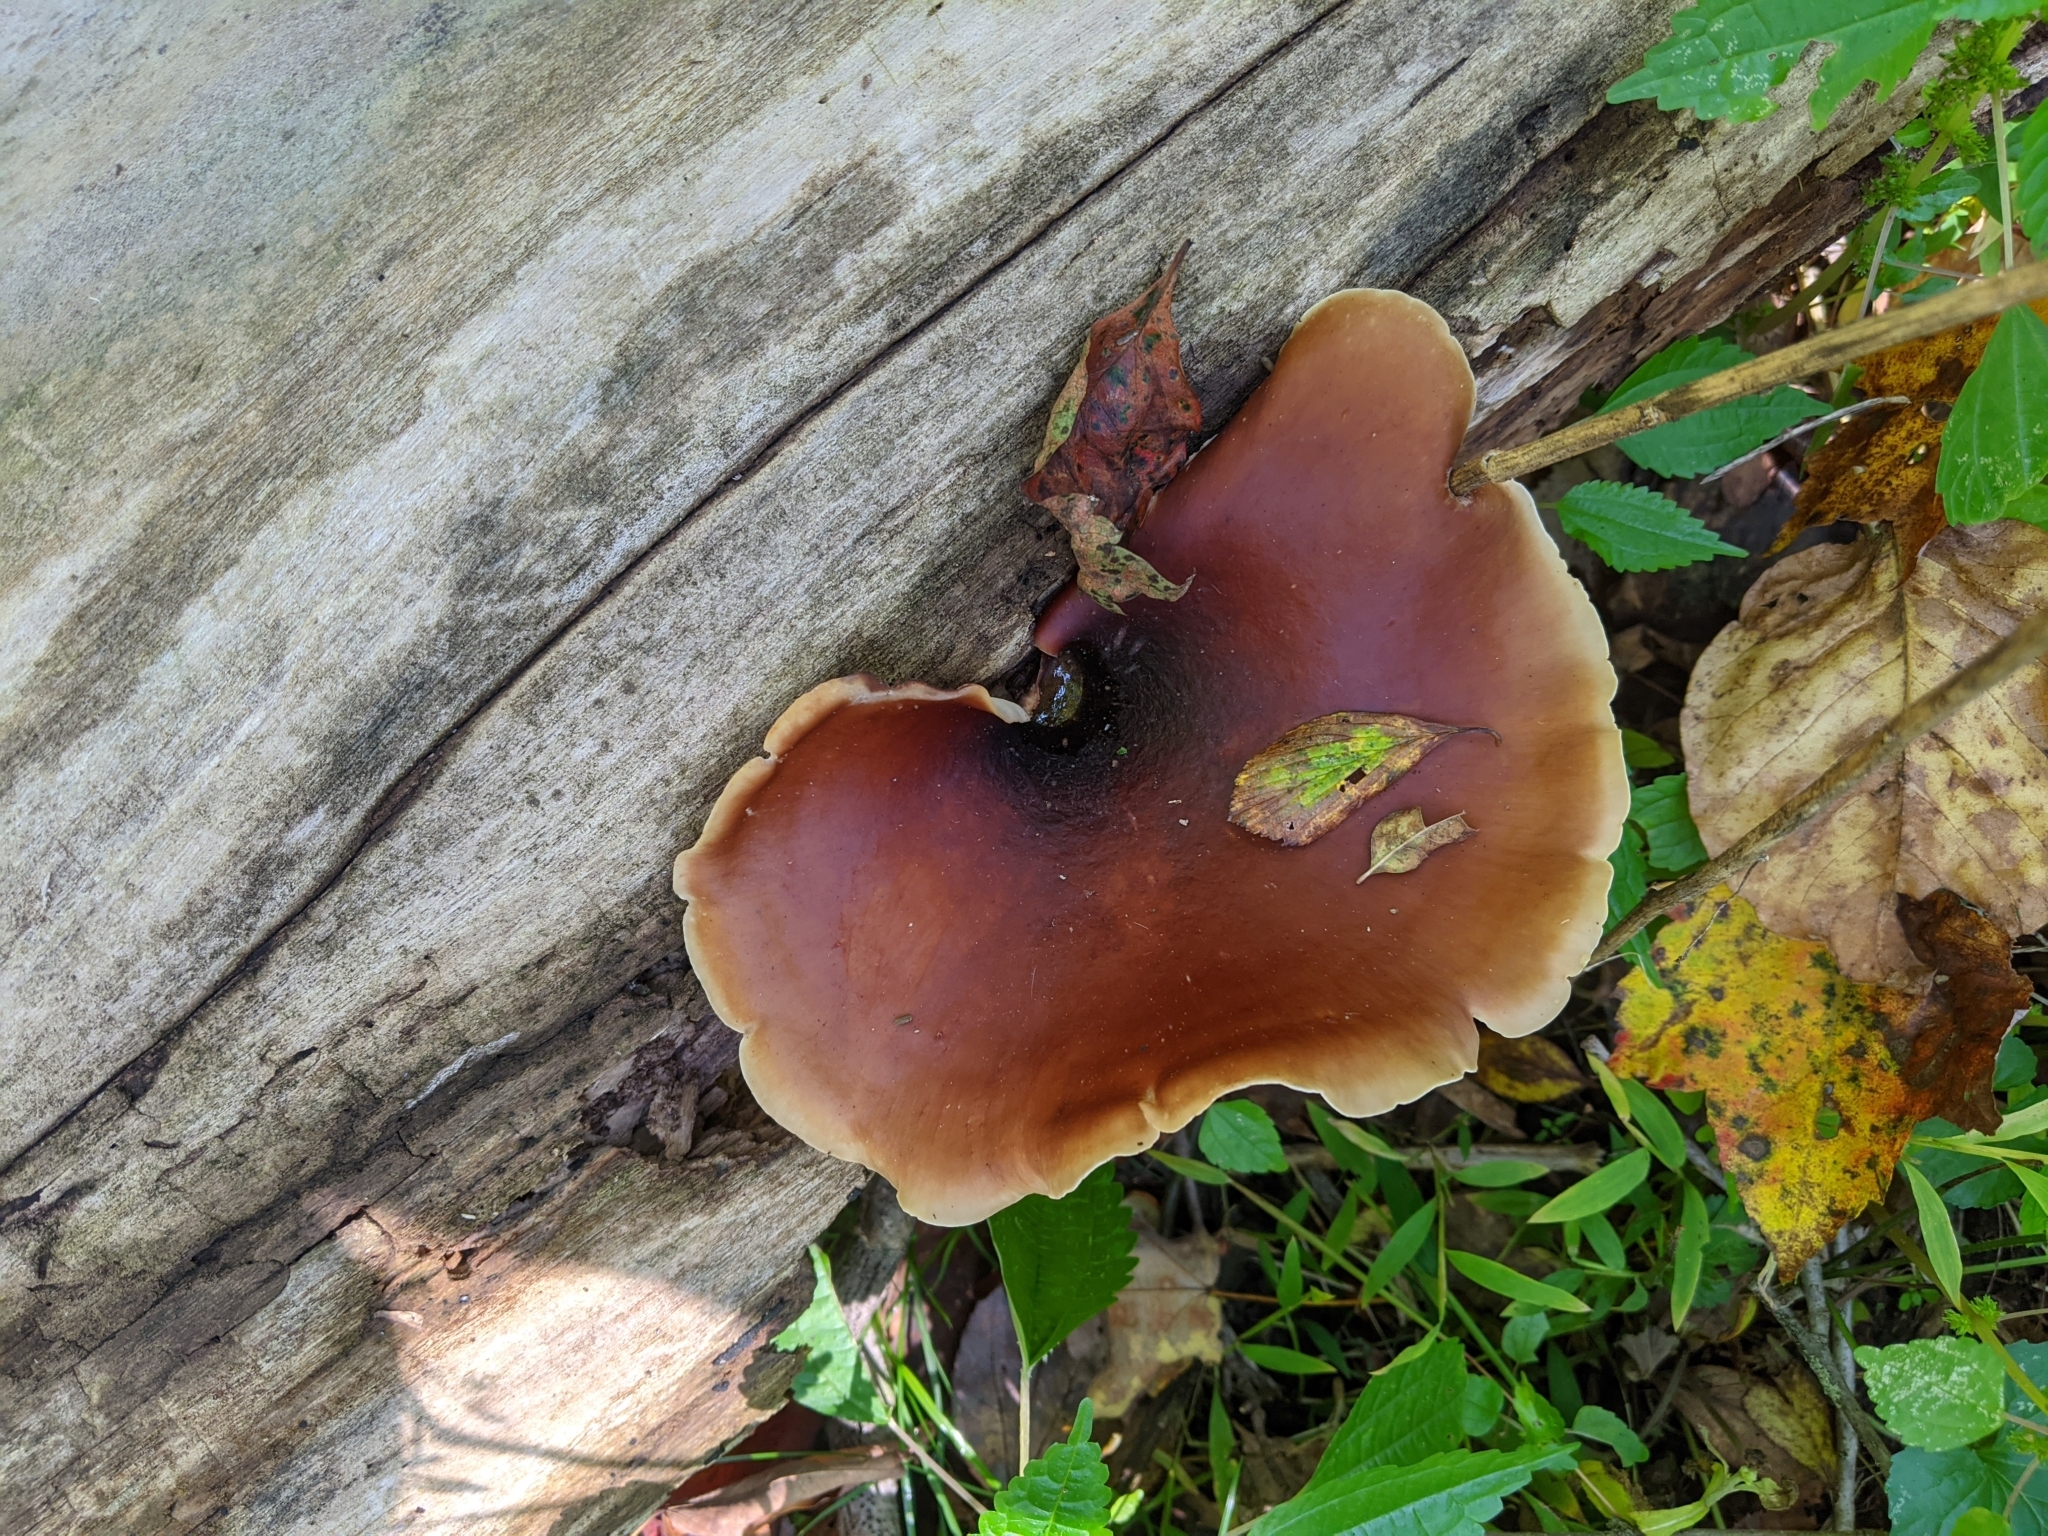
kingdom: Fungi
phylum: Basidiomycota
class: Agaricomycetes
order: Polyporales
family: Polyporaceae
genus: Picipes
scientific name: Picipes badius
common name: Bay polypore
